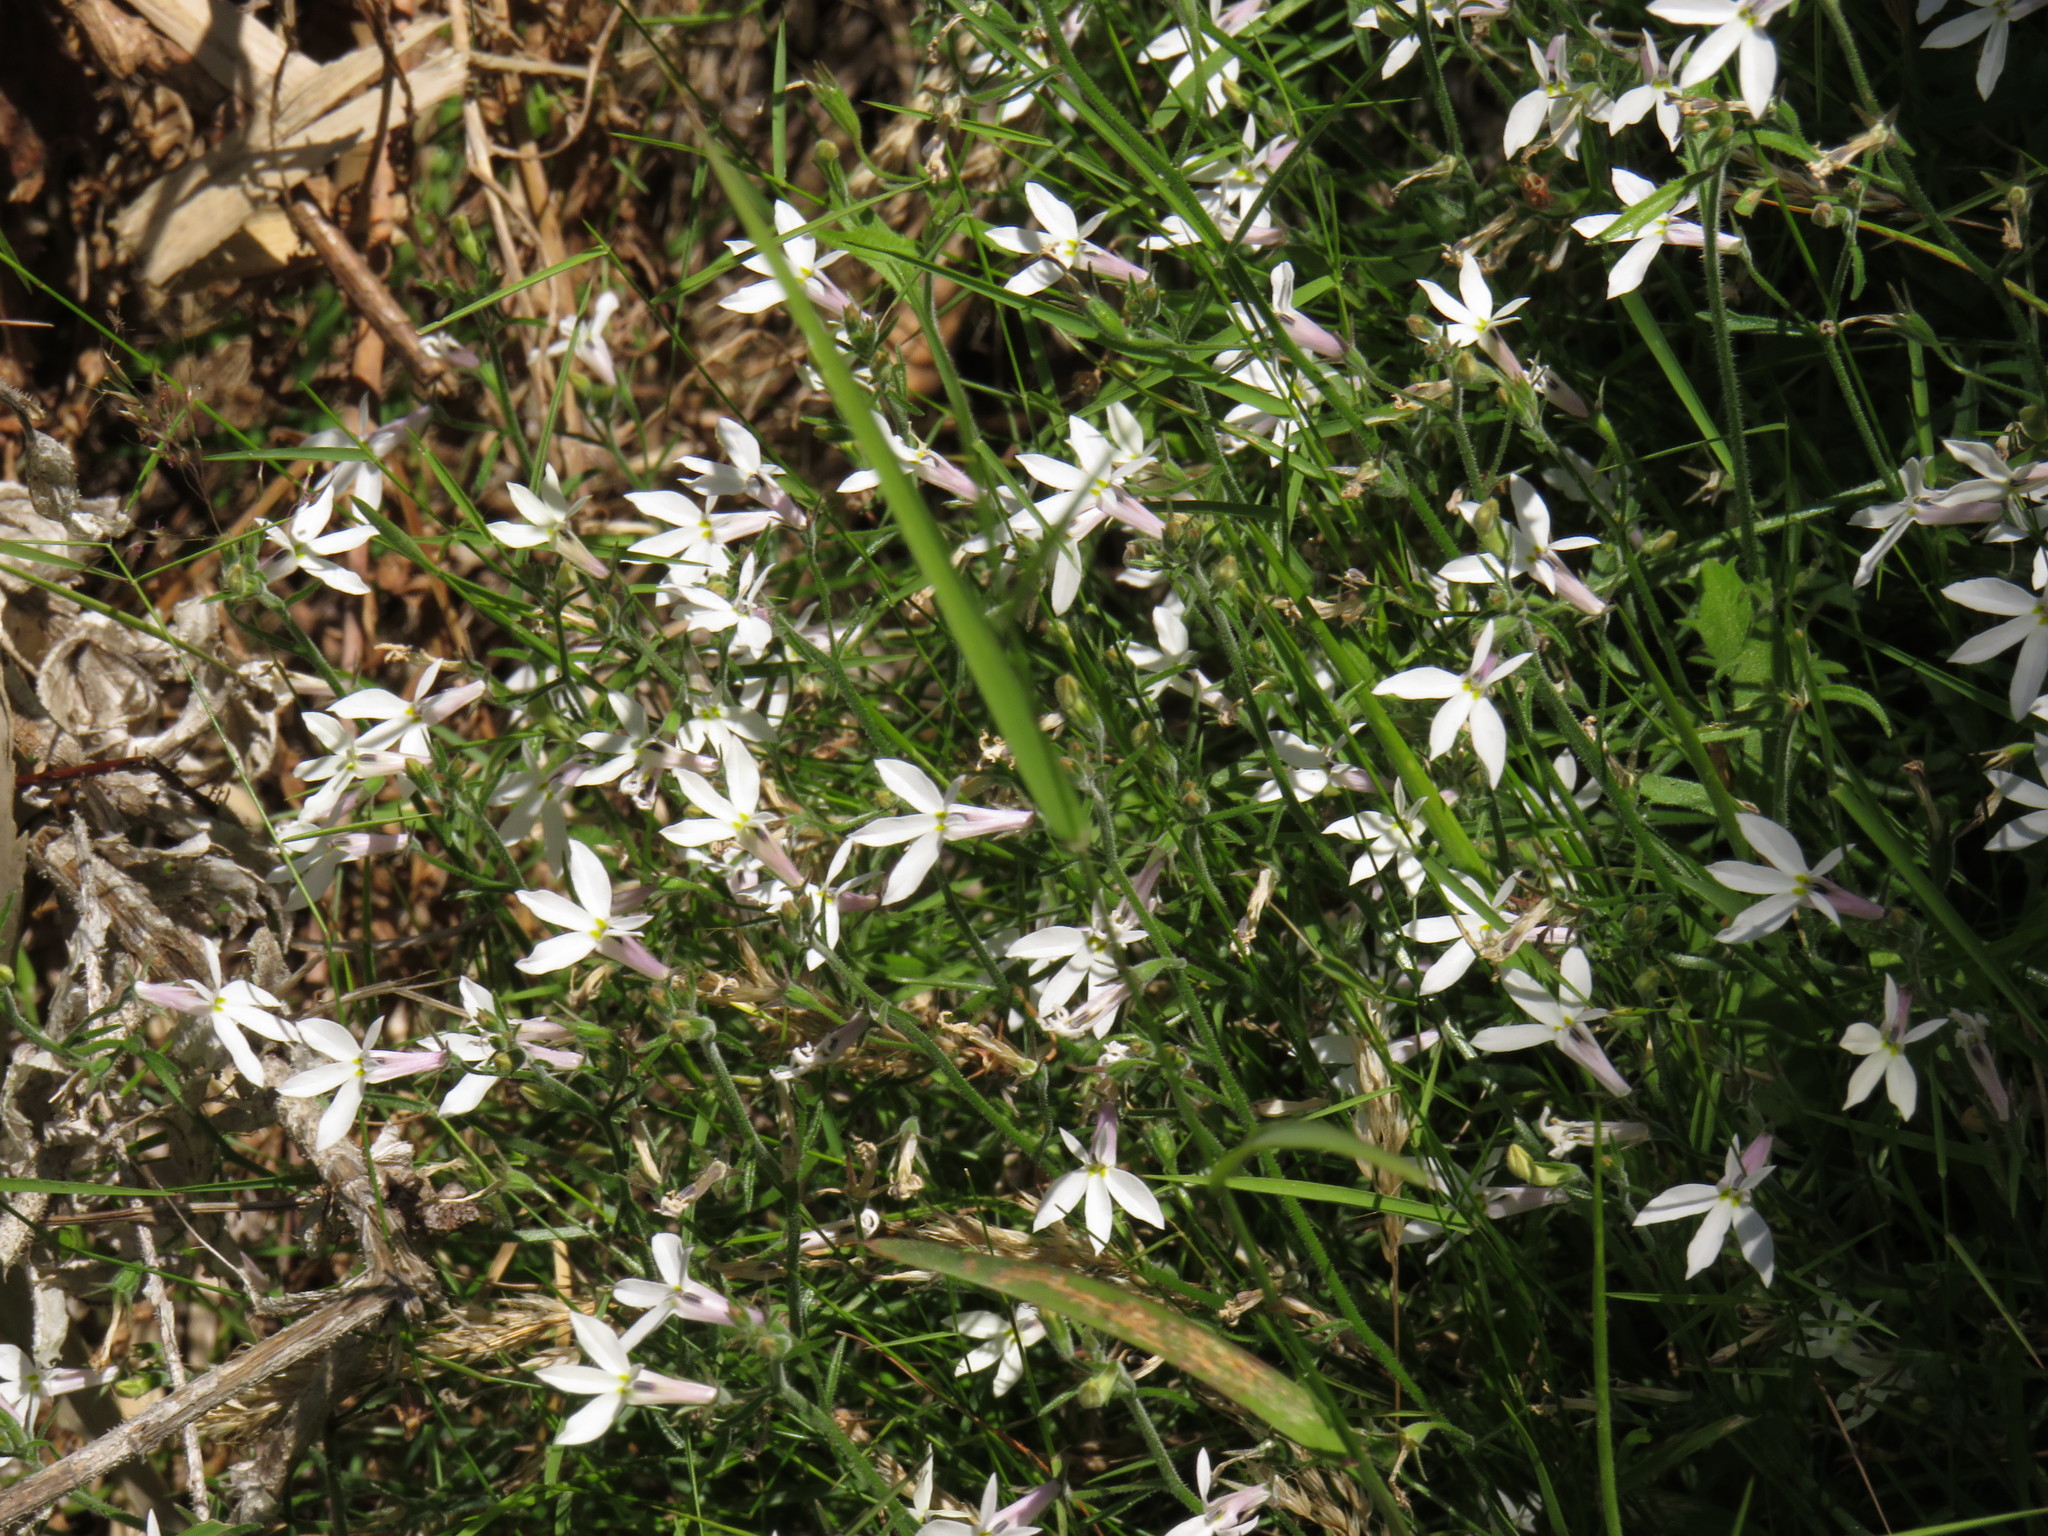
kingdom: Plantae
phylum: Tracheophyta
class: Magnoliopsida
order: Asterales
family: Campanulaceae
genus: Lobelia
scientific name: Lobelia pubescens
